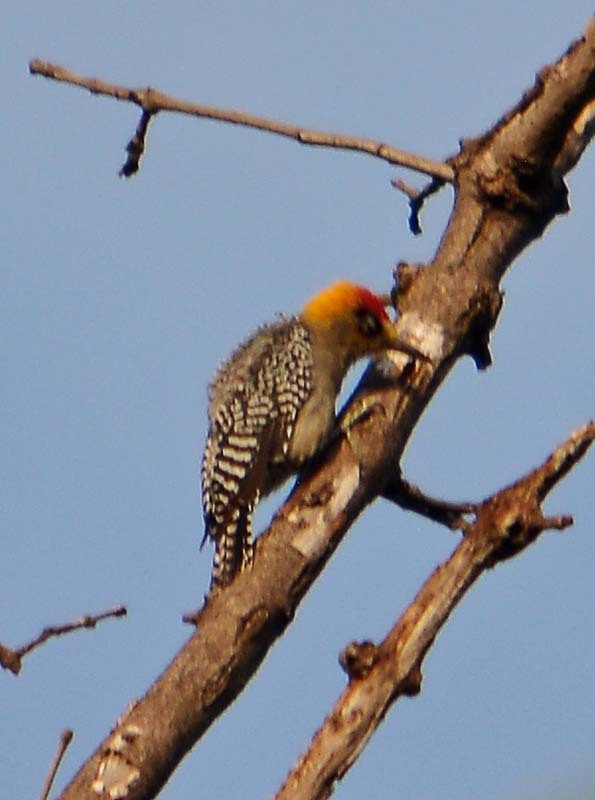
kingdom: Animalia
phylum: Chordata
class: Aves
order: Piciformes
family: Picidae
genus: Melanerpes
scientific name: Melanerpes chrysogenys
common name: Golden-cheeked woodpecker
